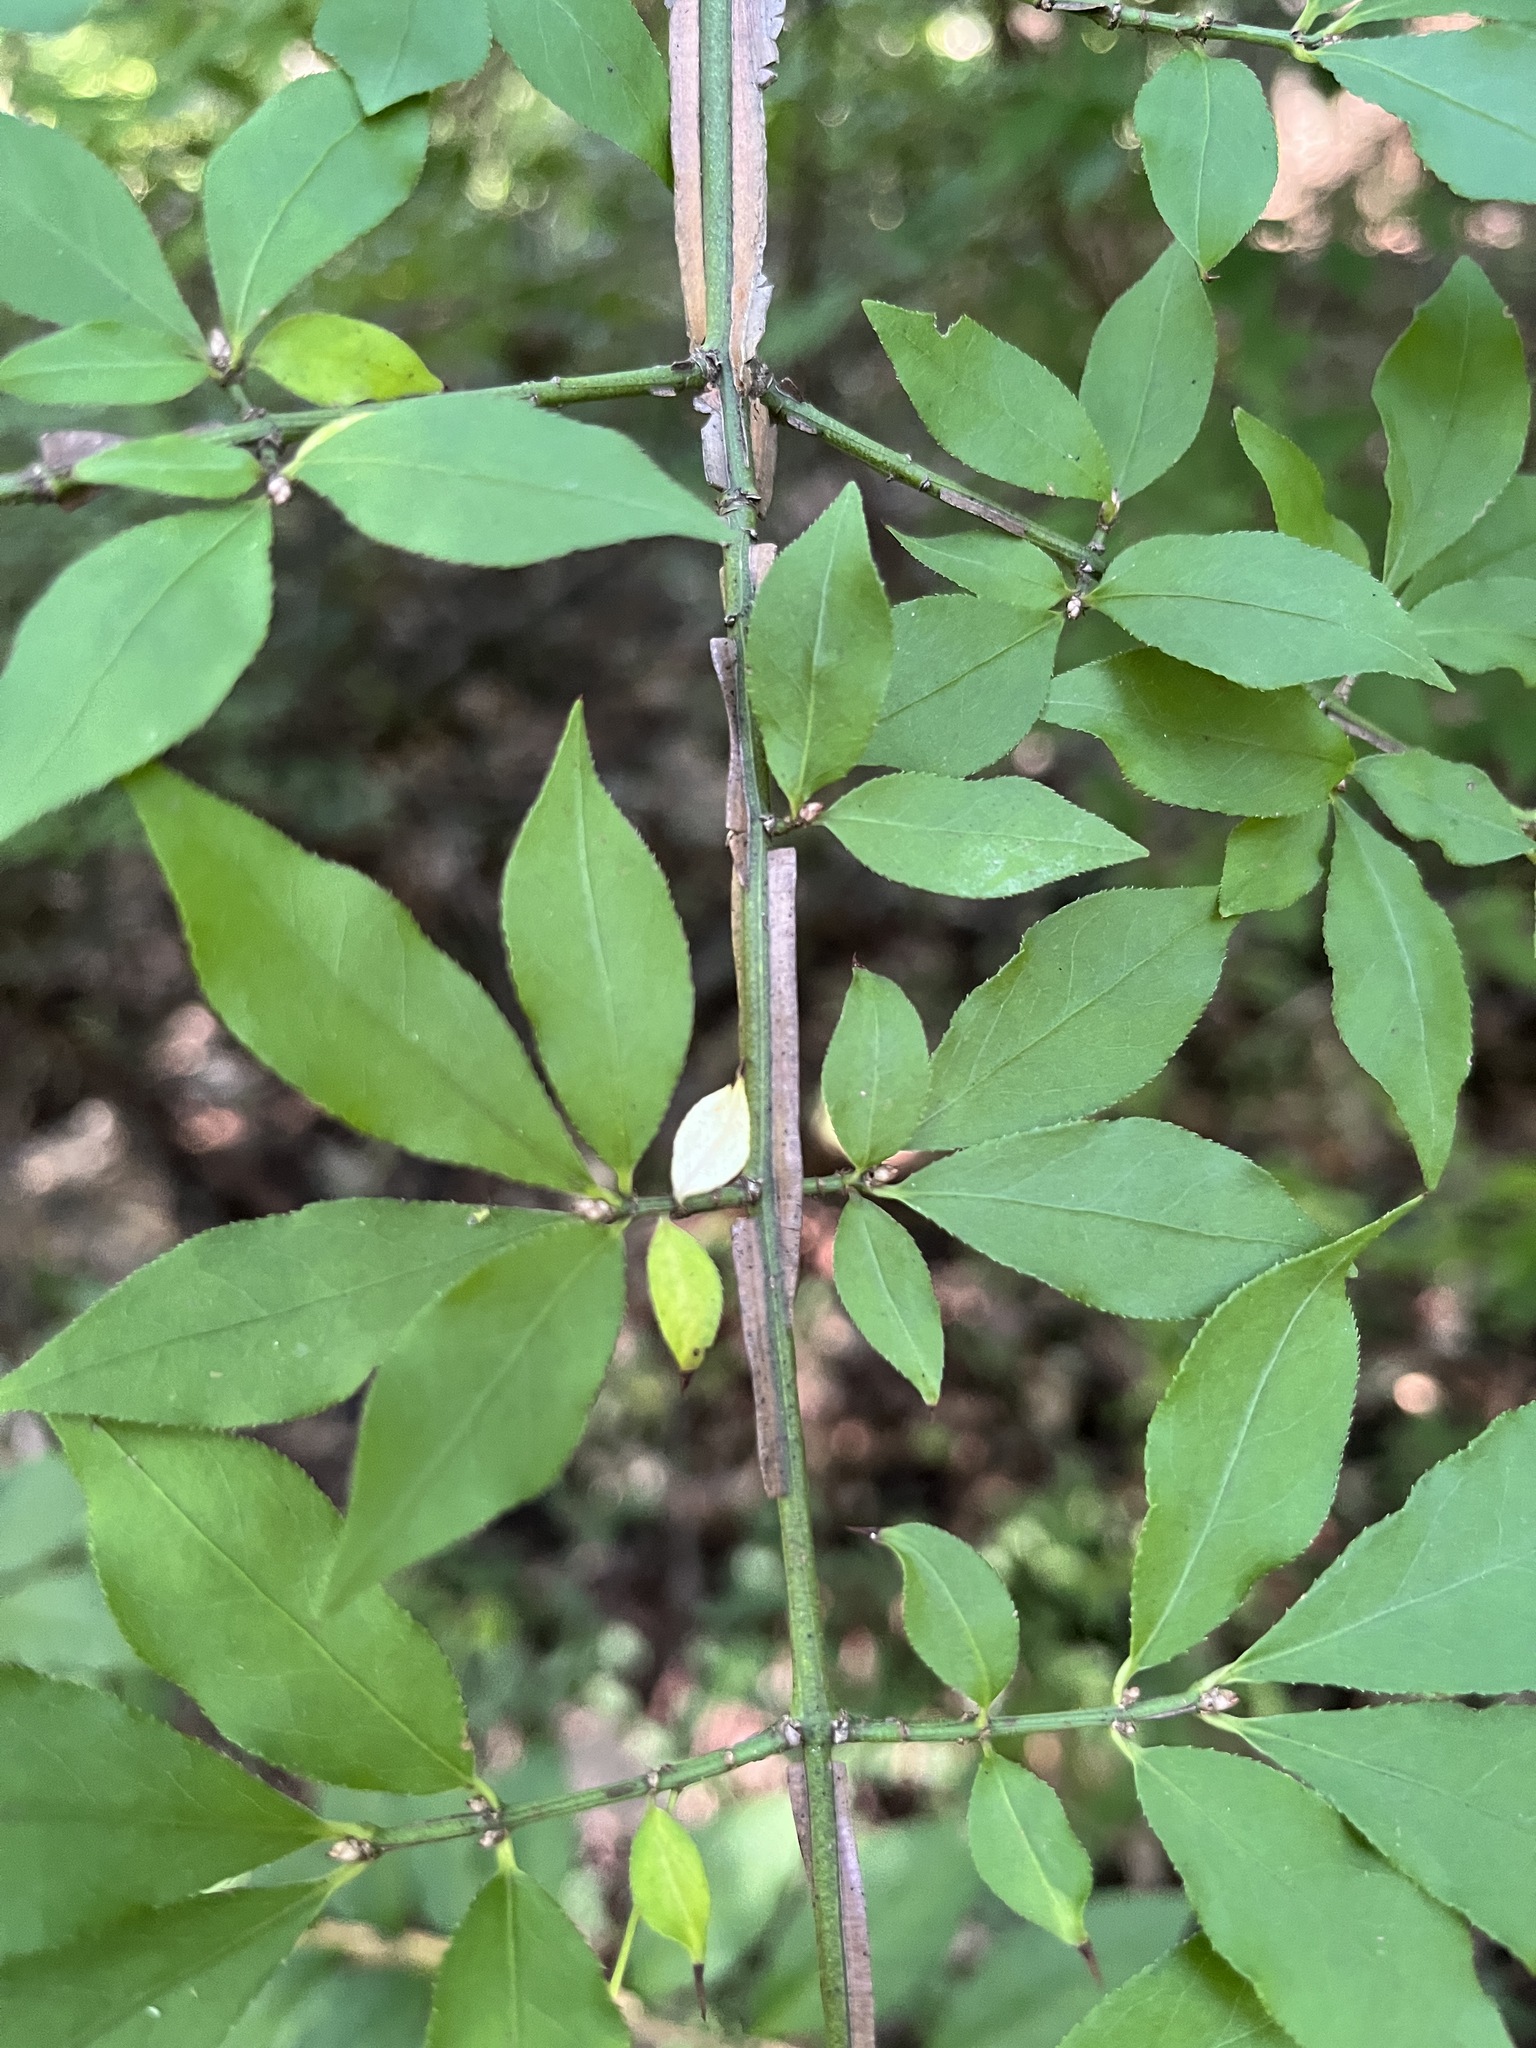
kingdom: Plantae
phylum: Tracheophyta
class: Magnoliopsida
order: Celastrales
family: Celastraceae
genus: Euonymus
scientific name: Euonymus alatus
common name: Winged euonymus
